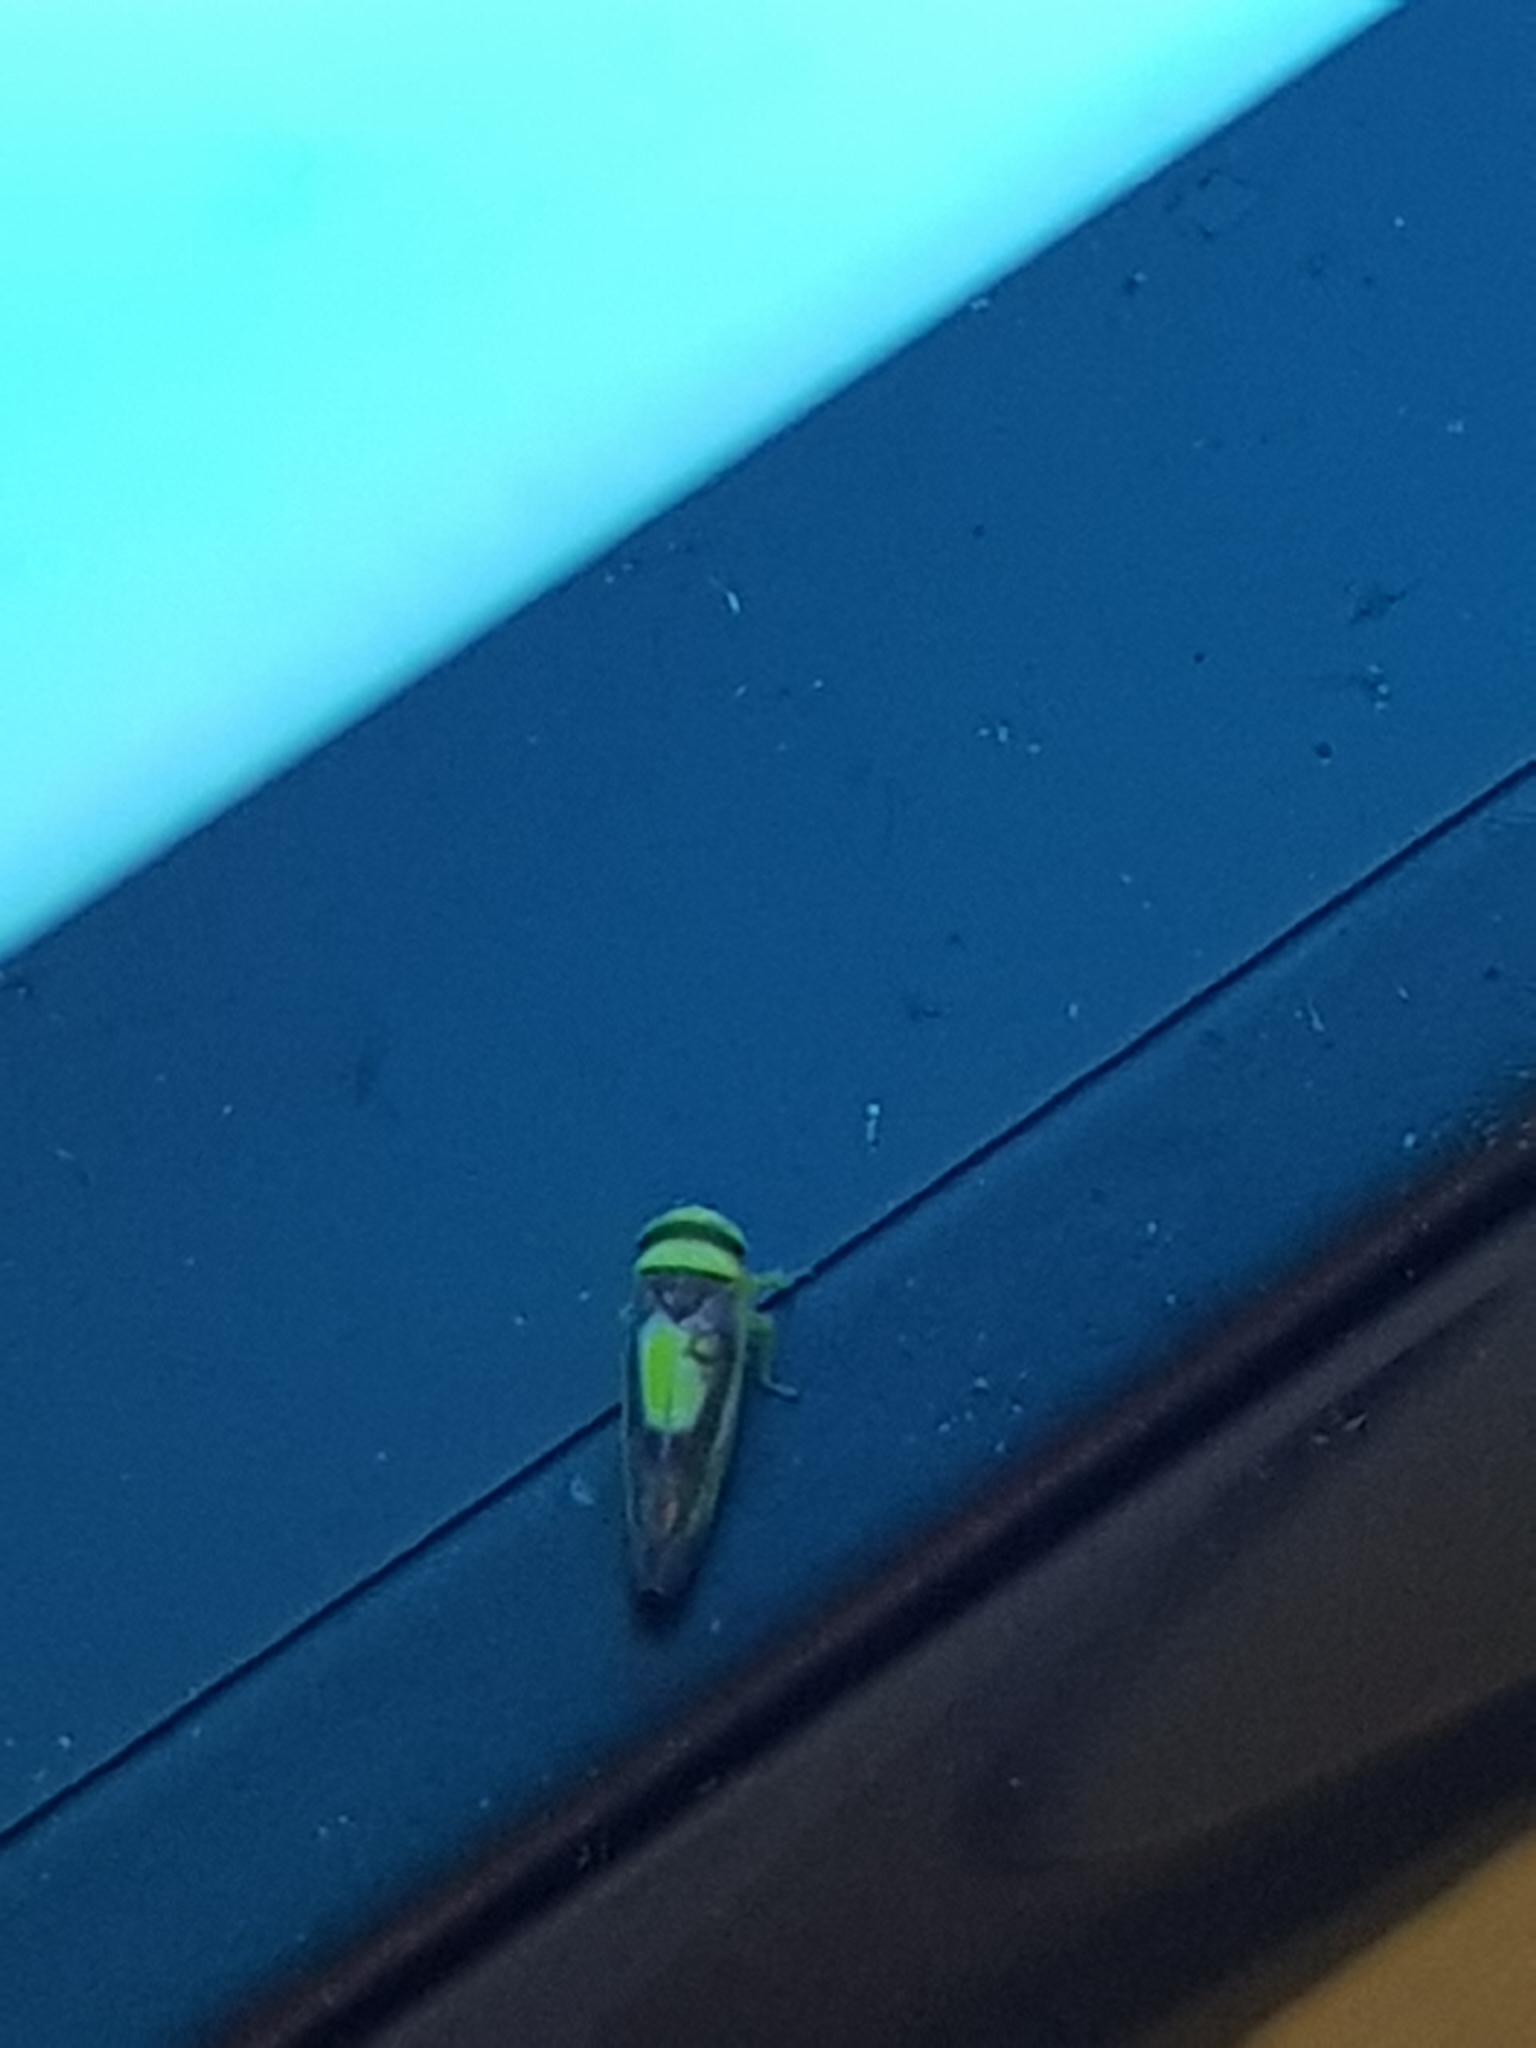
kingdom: Animalia
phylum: Arthropoda
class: Insecta
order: Hemiptera
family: Cicadellidae
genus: Colladonus
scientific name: Colladonus clitellarius
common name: The saddleback leafhopper
